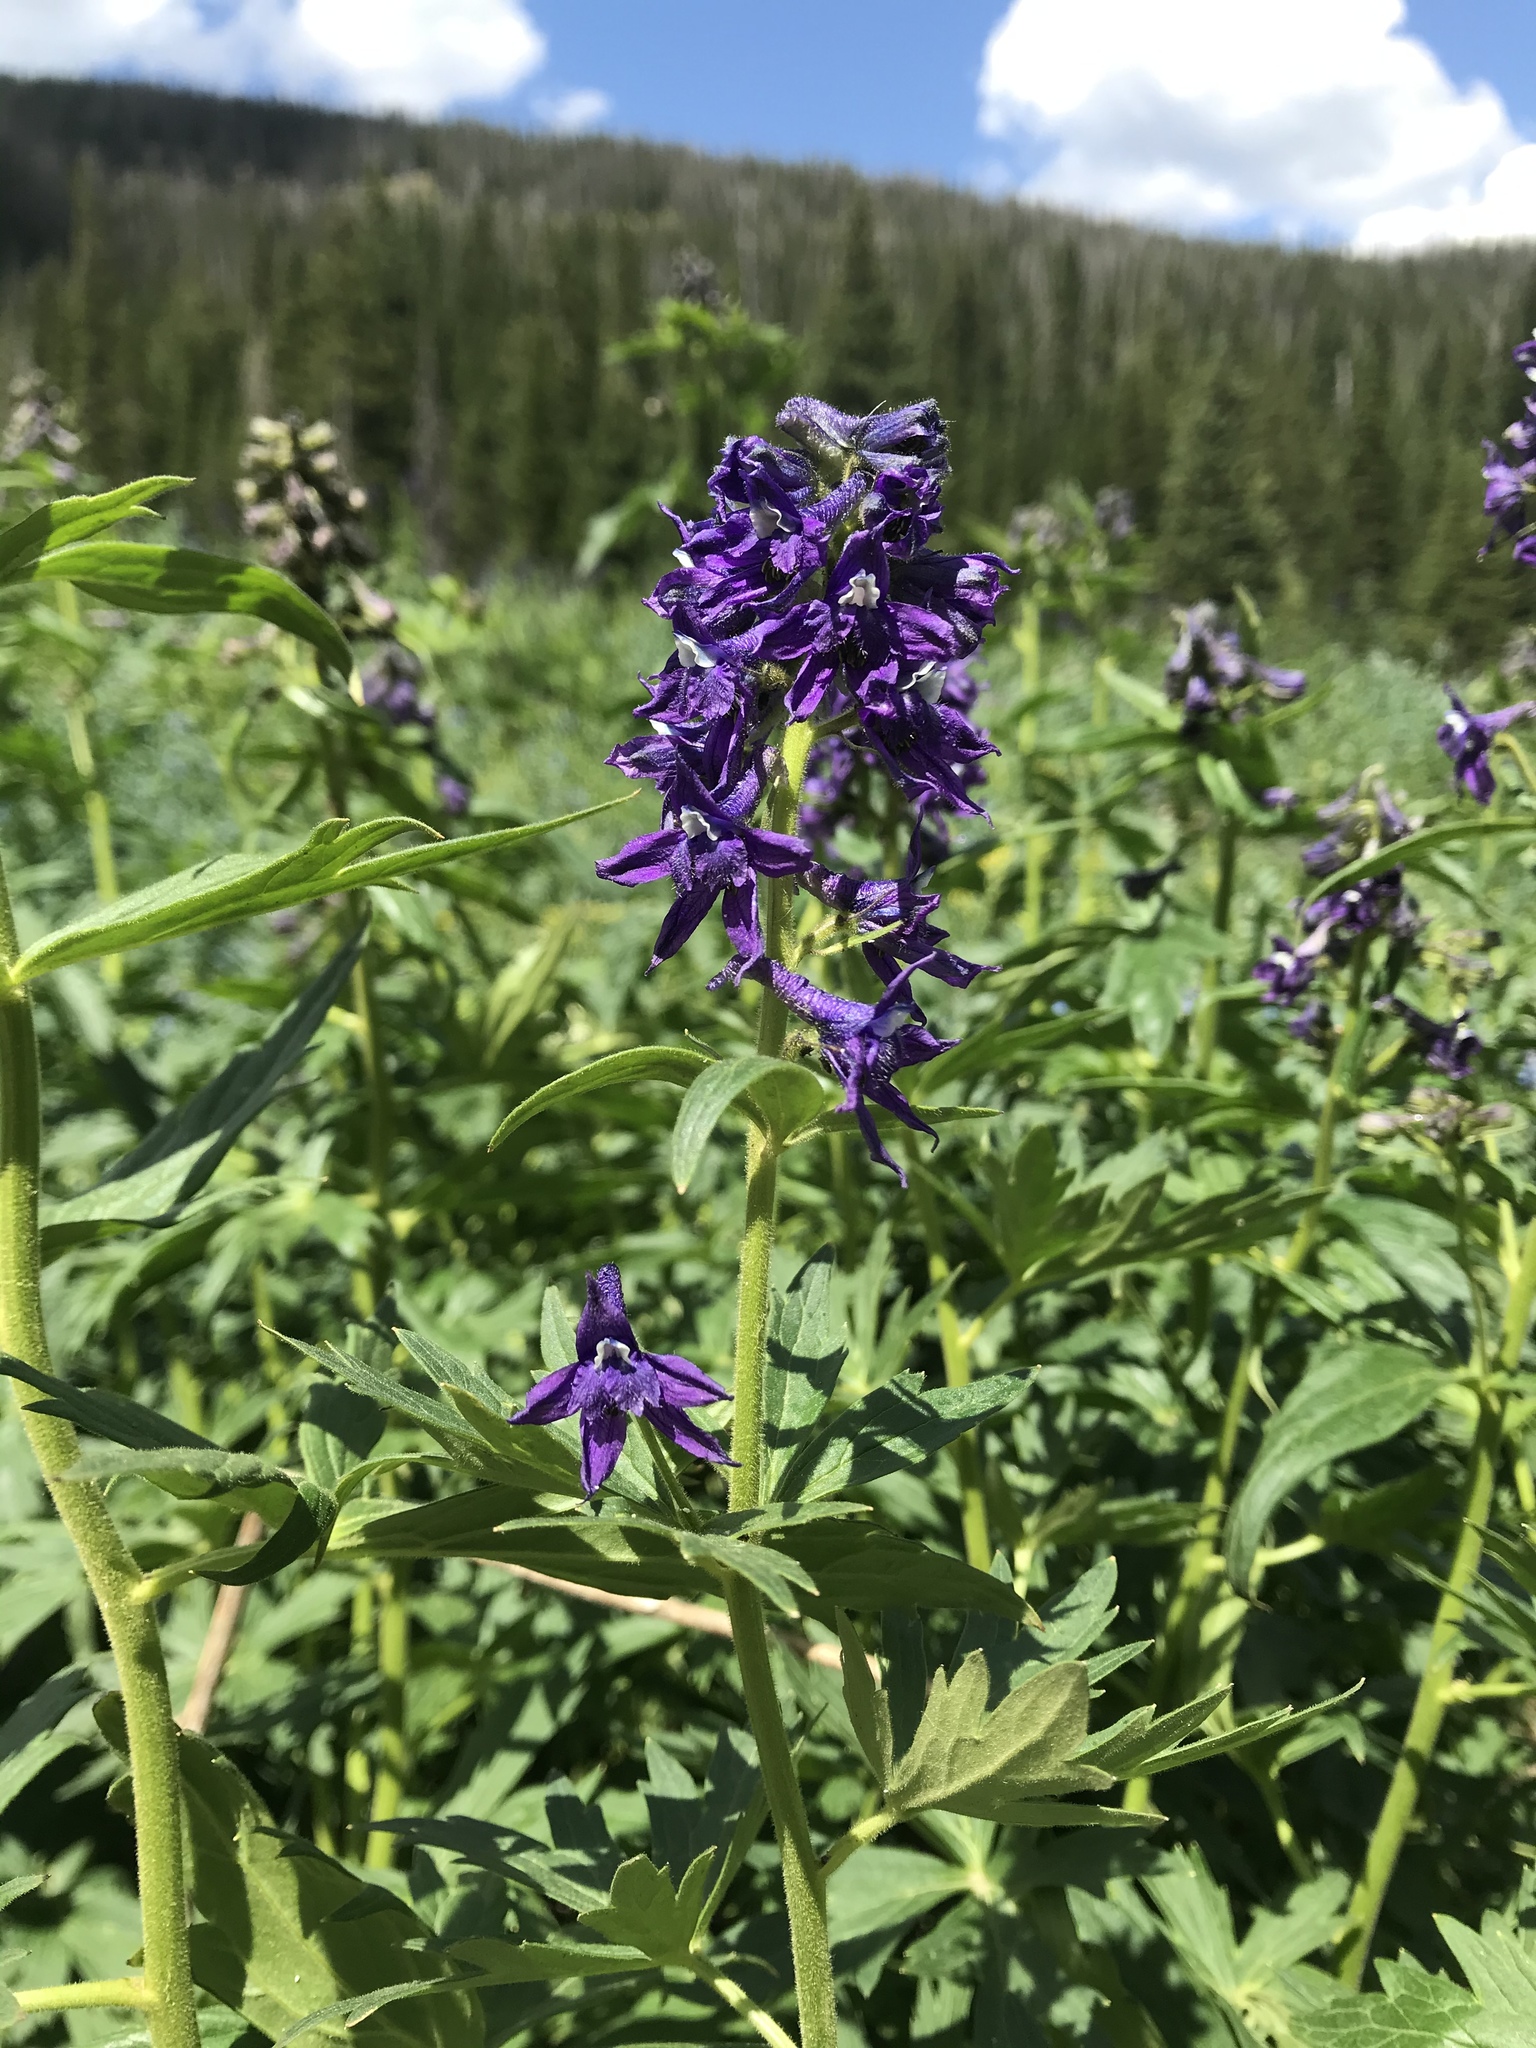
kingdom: Plantae
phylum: Tracheophyta
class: Magnoliopsida
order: Ranunculales
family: Ranunculaceae
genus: Delphinium
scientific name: Delphinium barbeyi
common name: Subalpine larkspur
